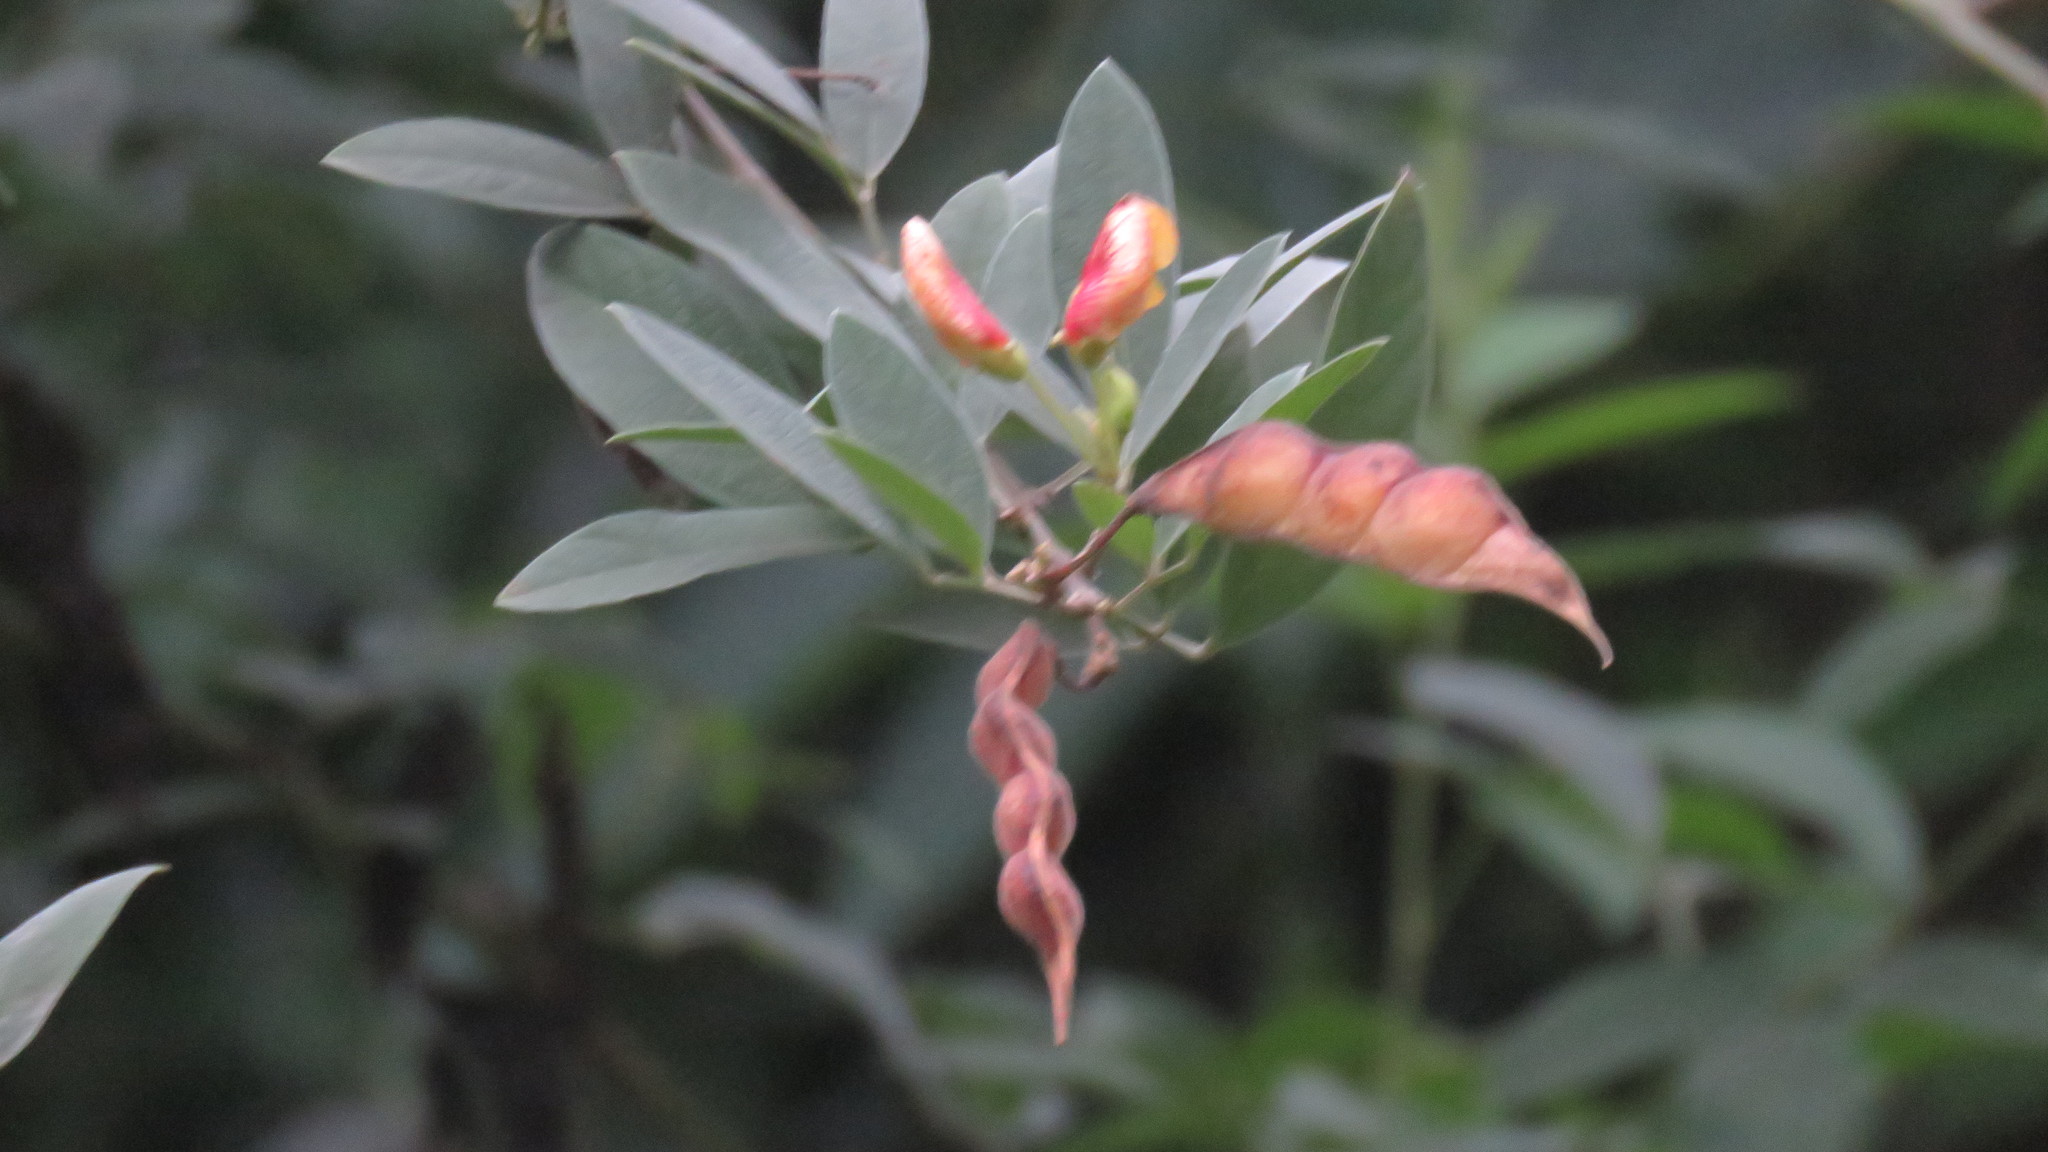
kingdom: Plantae
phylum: Tracheophyta
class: Magnoliopsida
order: Fabales
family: Fabaceae
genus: Cajanus
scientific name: Cajanus cajan
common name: Pigeonpea
